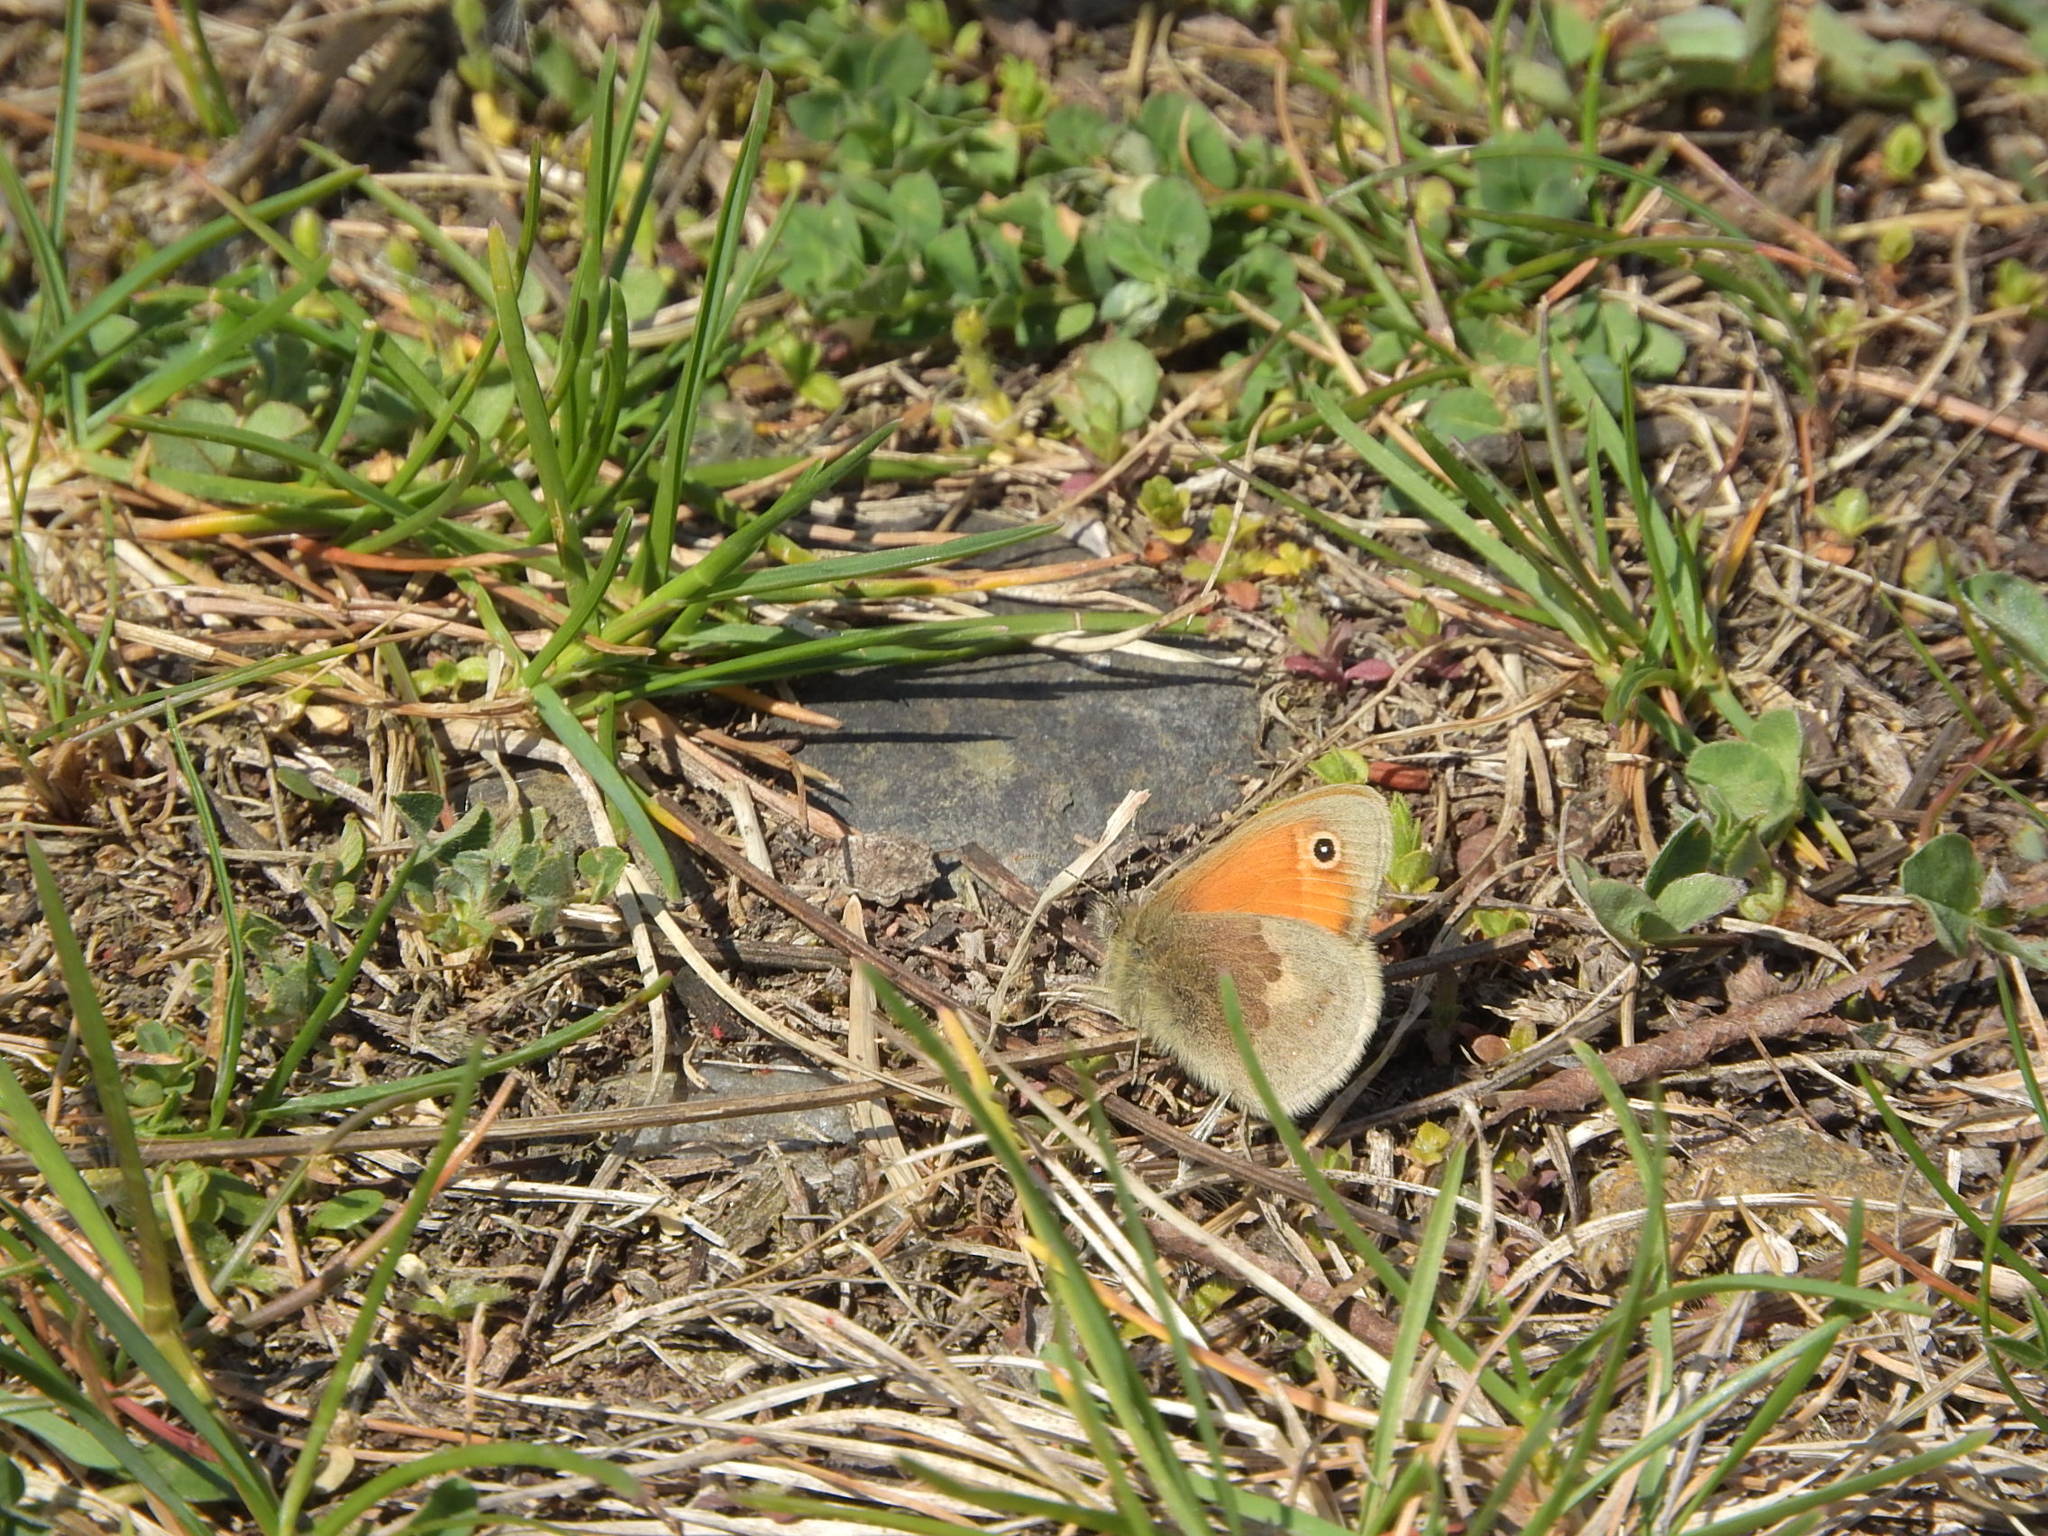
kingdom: Animalia
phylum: Arthropoda
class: Insecta
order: Lepidoptera
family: Nymphalidae
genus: Coenonympha
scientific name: Coenonympha pamphilus
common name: Small heath
